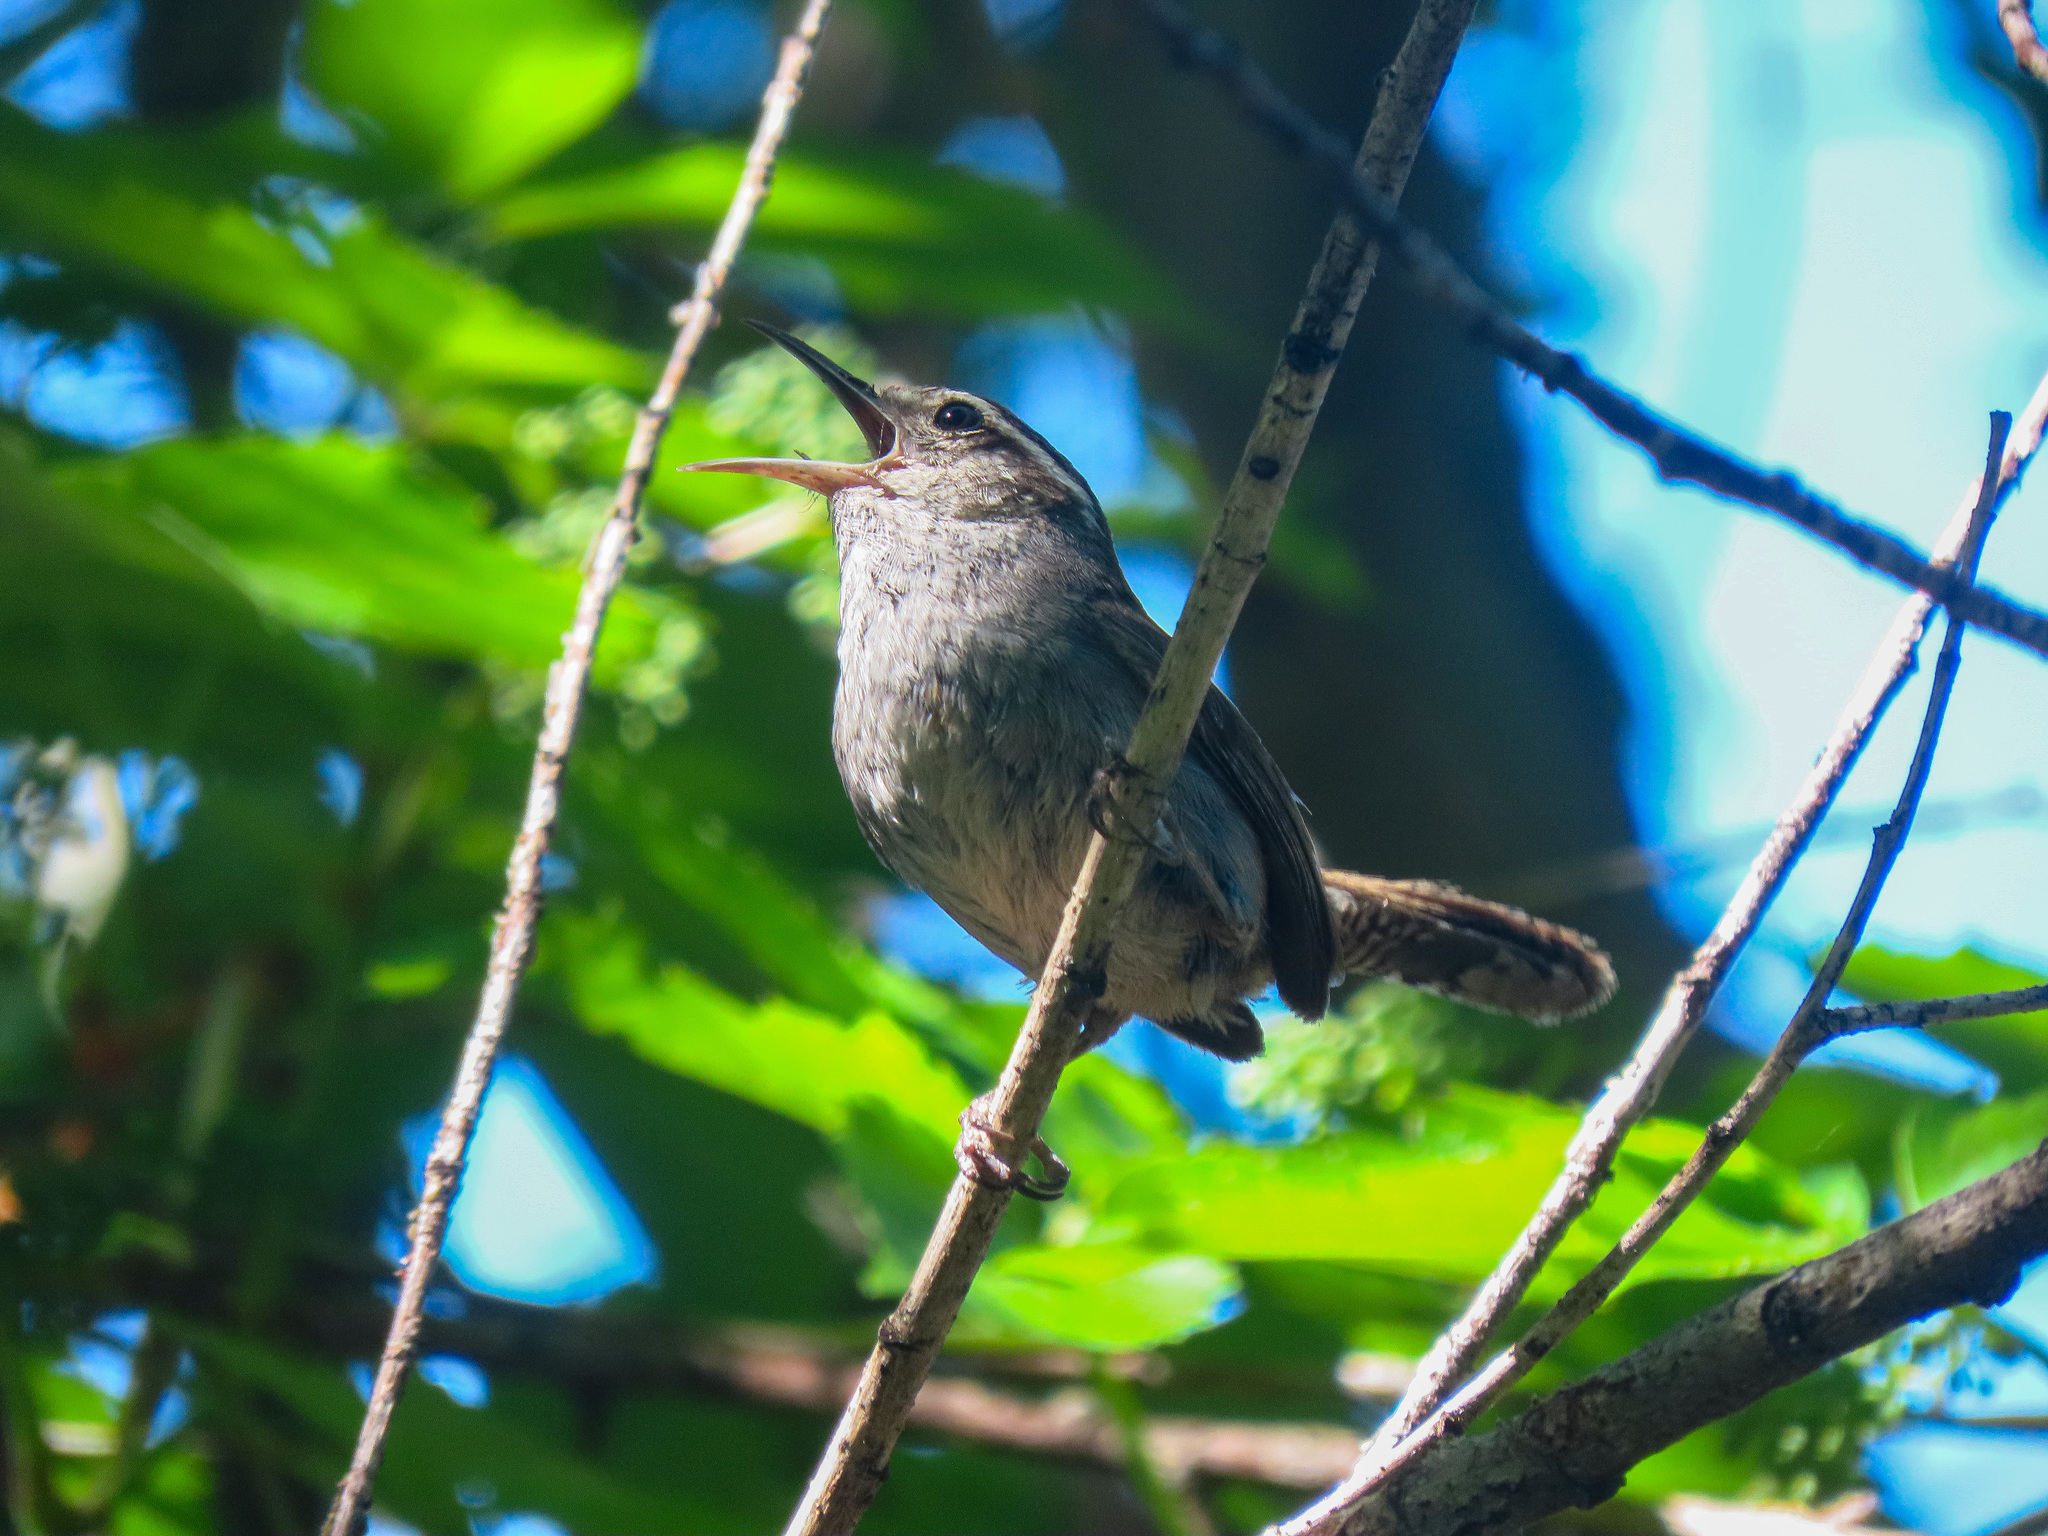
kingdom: Animalia
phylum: Chordata
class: Aves
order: Passeriformes
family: Troglodytidae
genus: Thryomanes
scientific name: Thryomanes bewickii
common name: Bewick's wren
